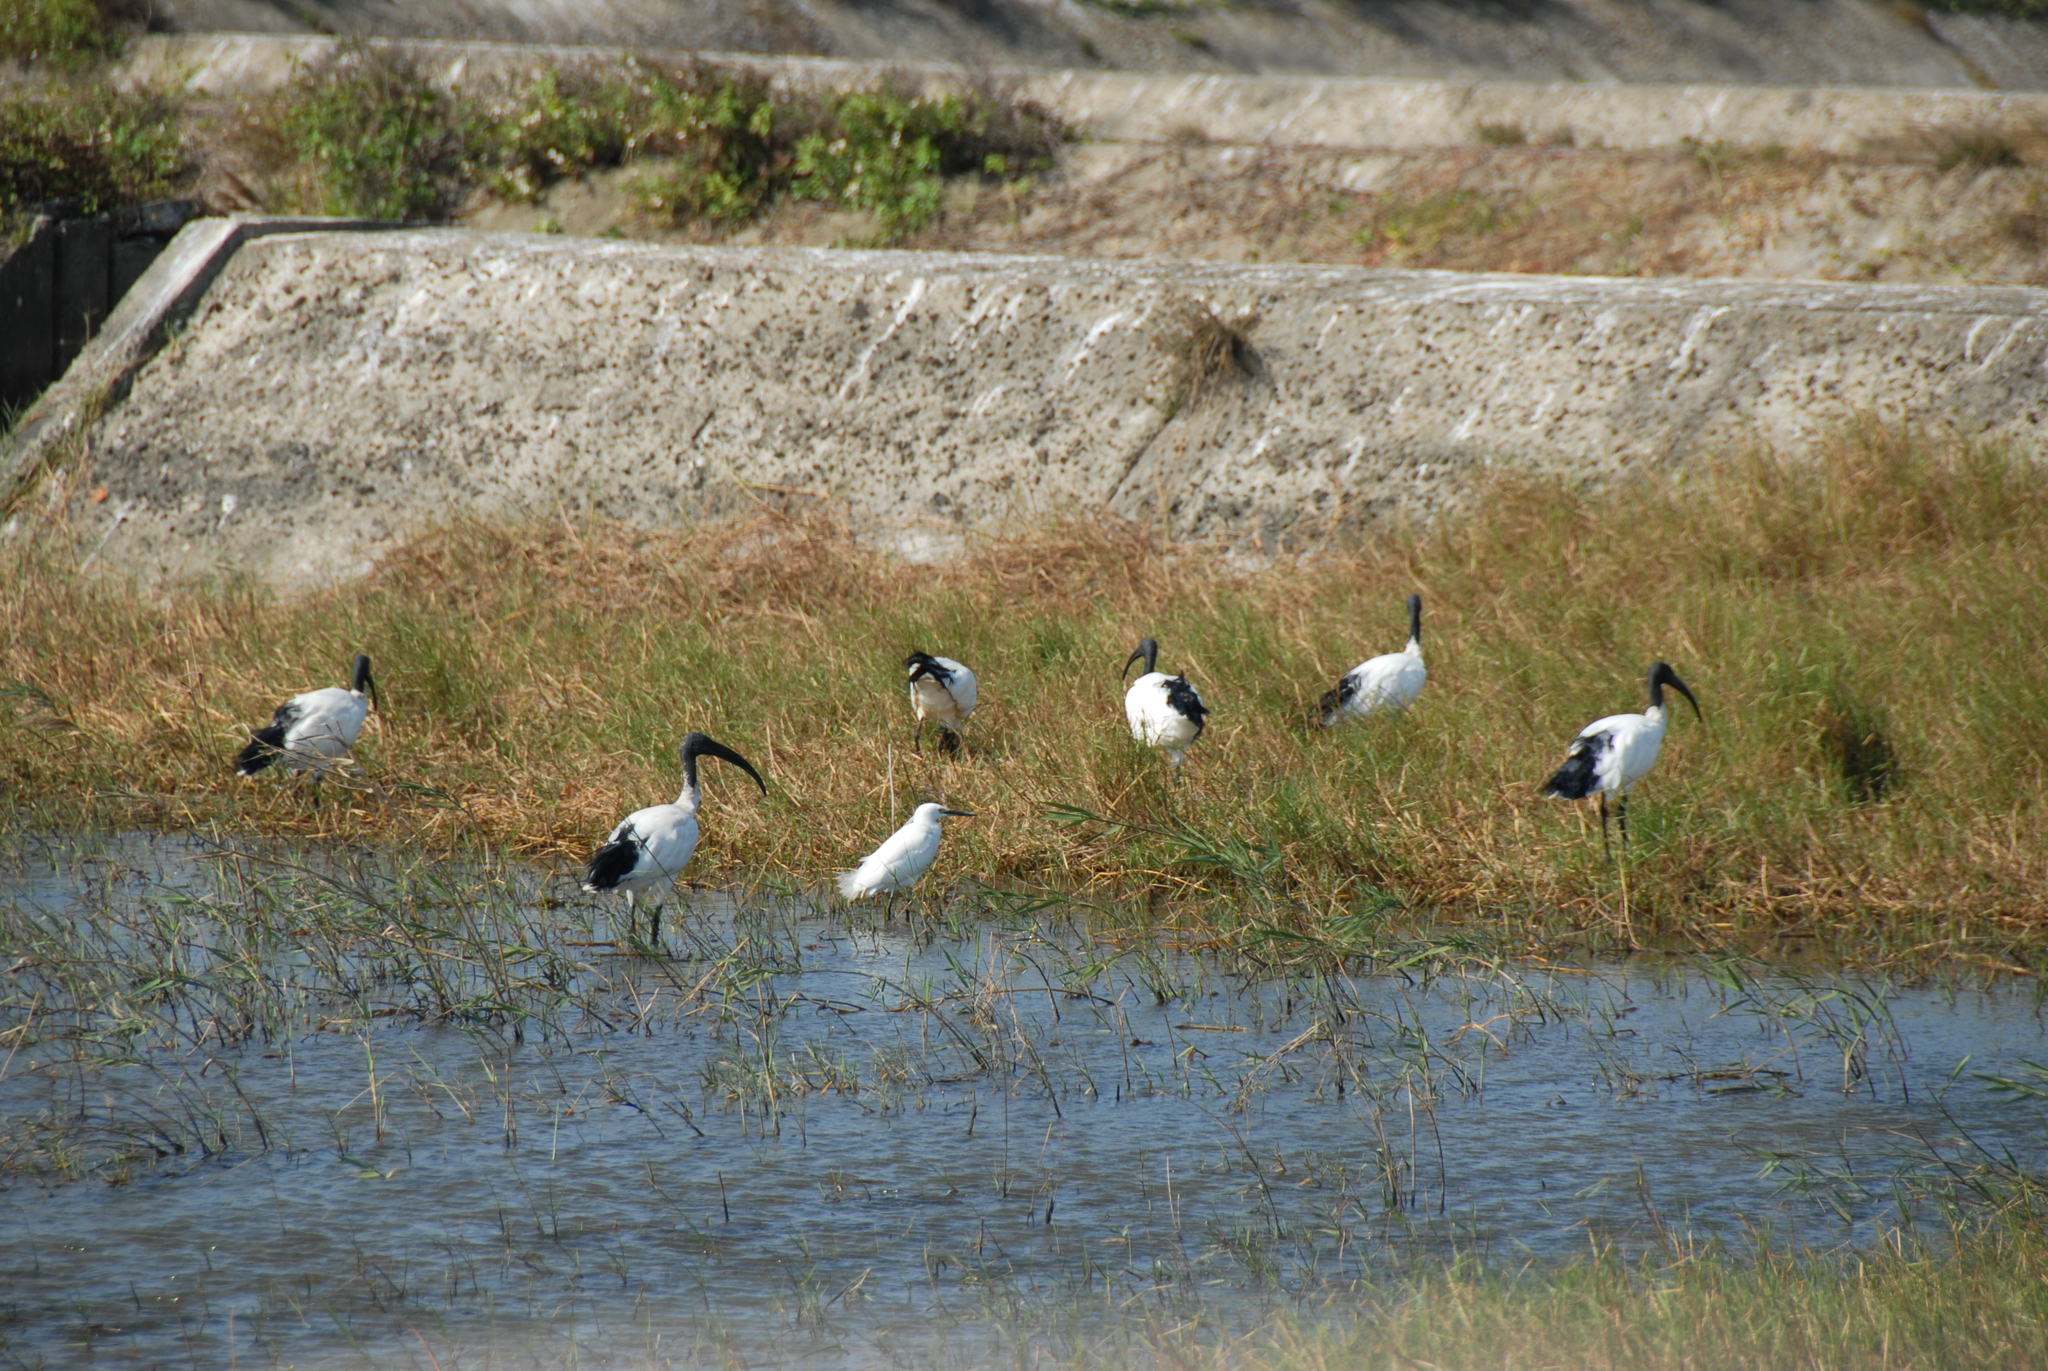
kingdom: Animalia
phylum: Chordata
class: Aves
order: Pelecaniformes
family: Threskiornithidae
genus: Threskiornis
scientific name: Threskiornis aethiopicus
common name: Sacred ibis
